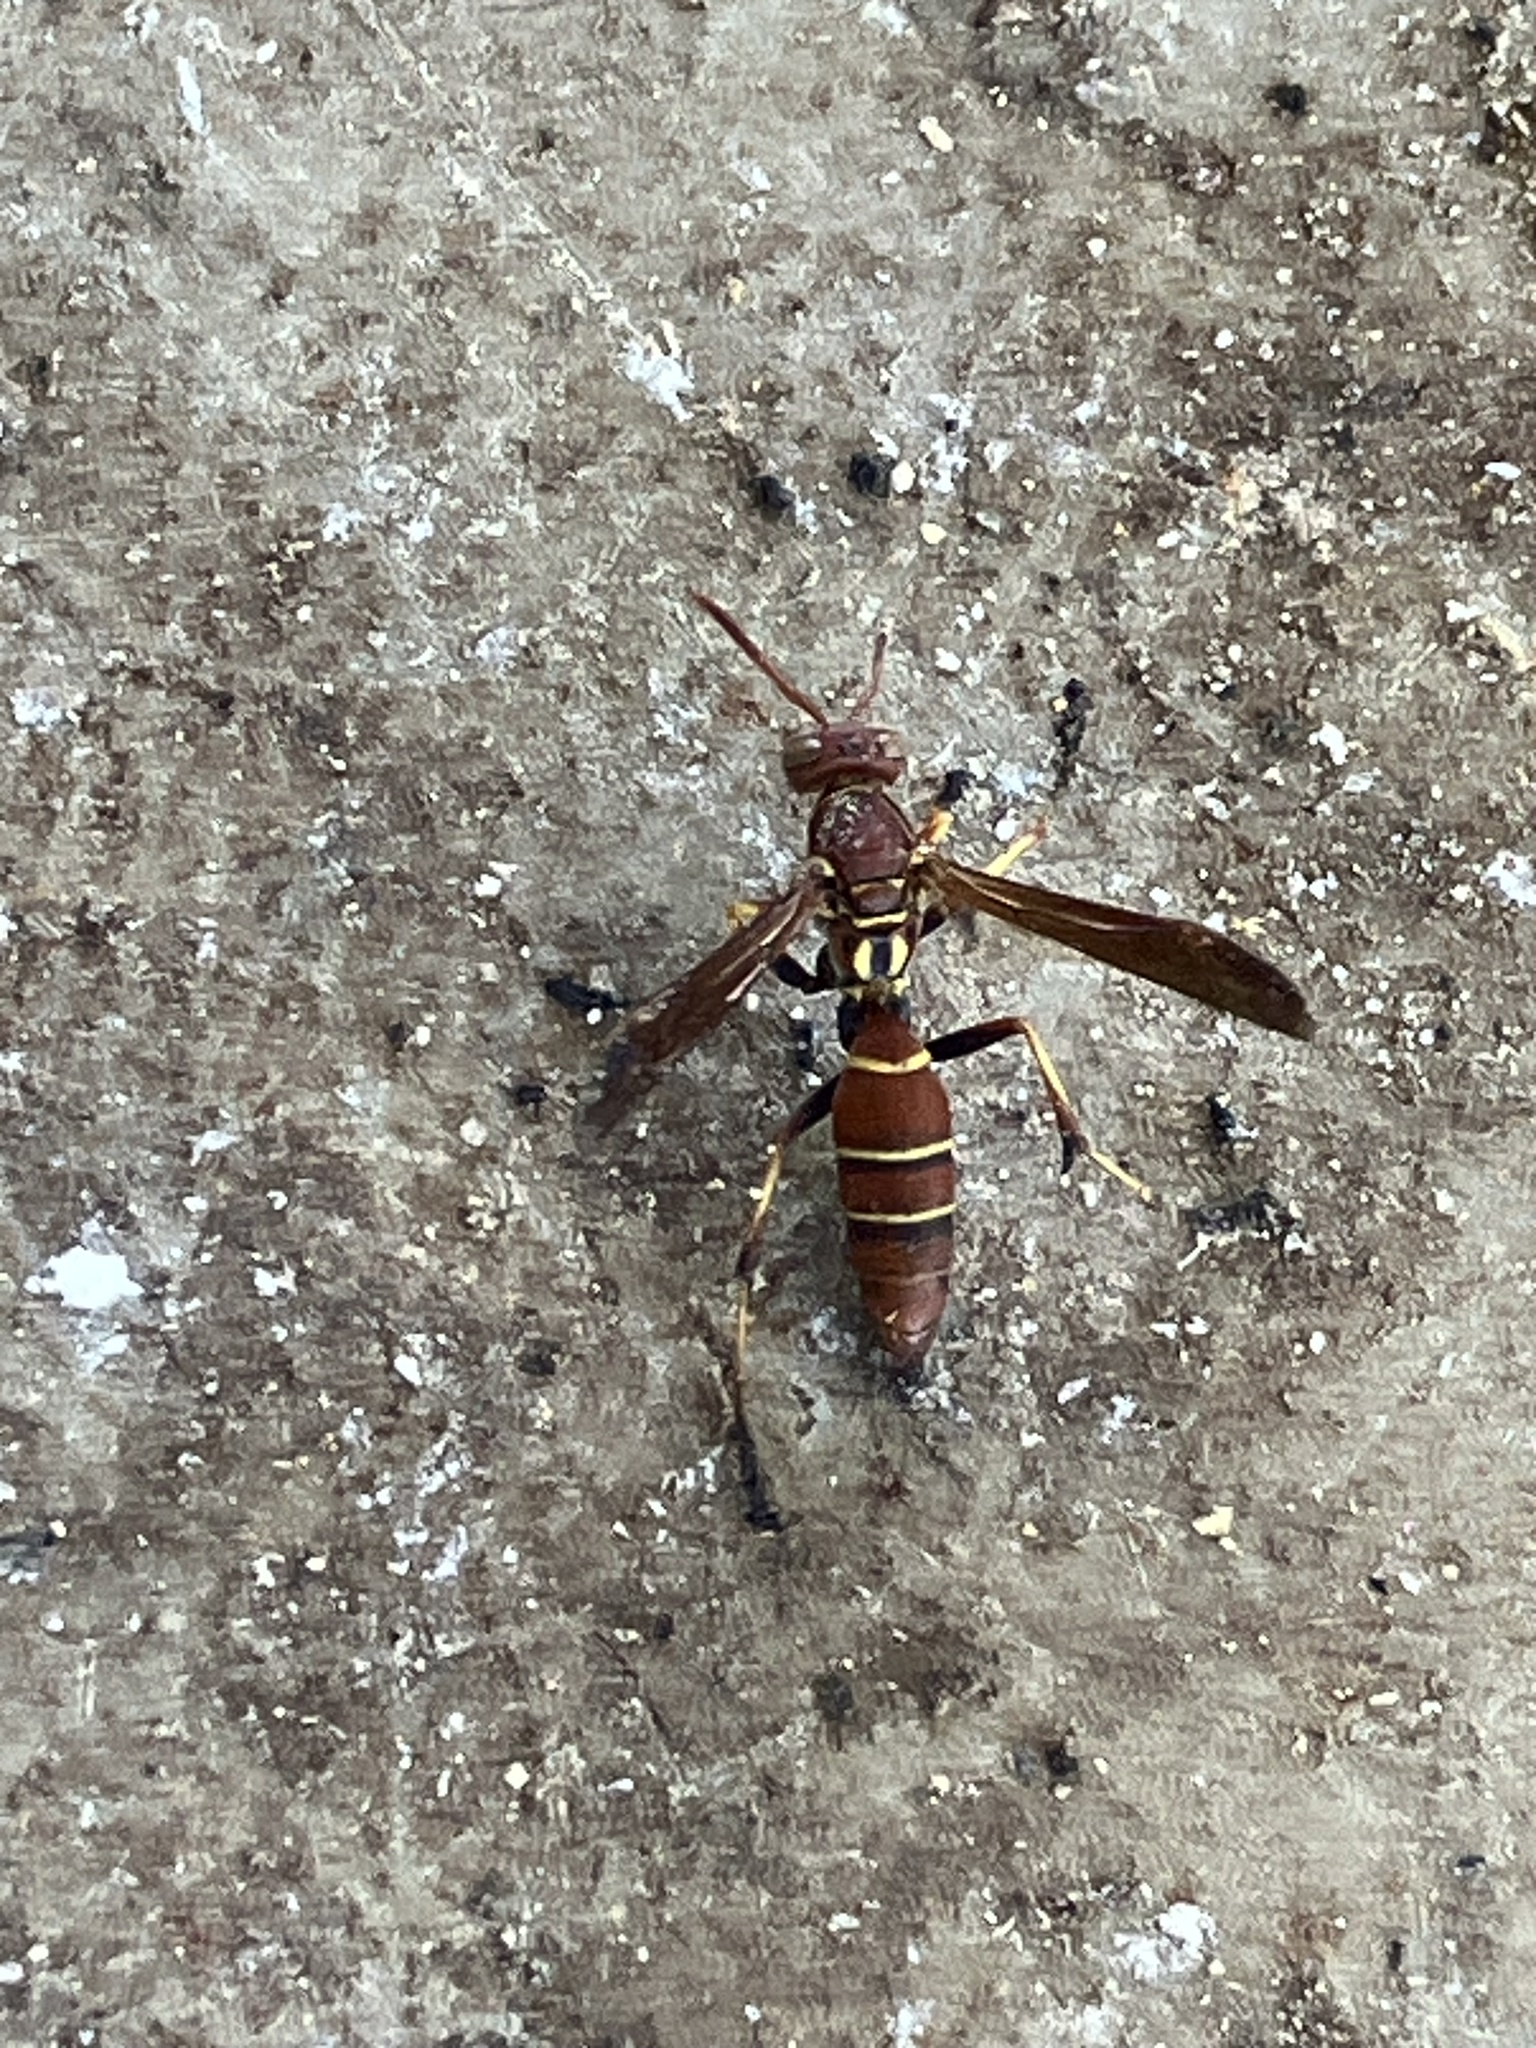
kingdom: Animalia
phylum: Arthropoda
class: Insecta
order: Hymenoptera
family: Eumenidae
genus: Polistes
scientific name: Polistes
